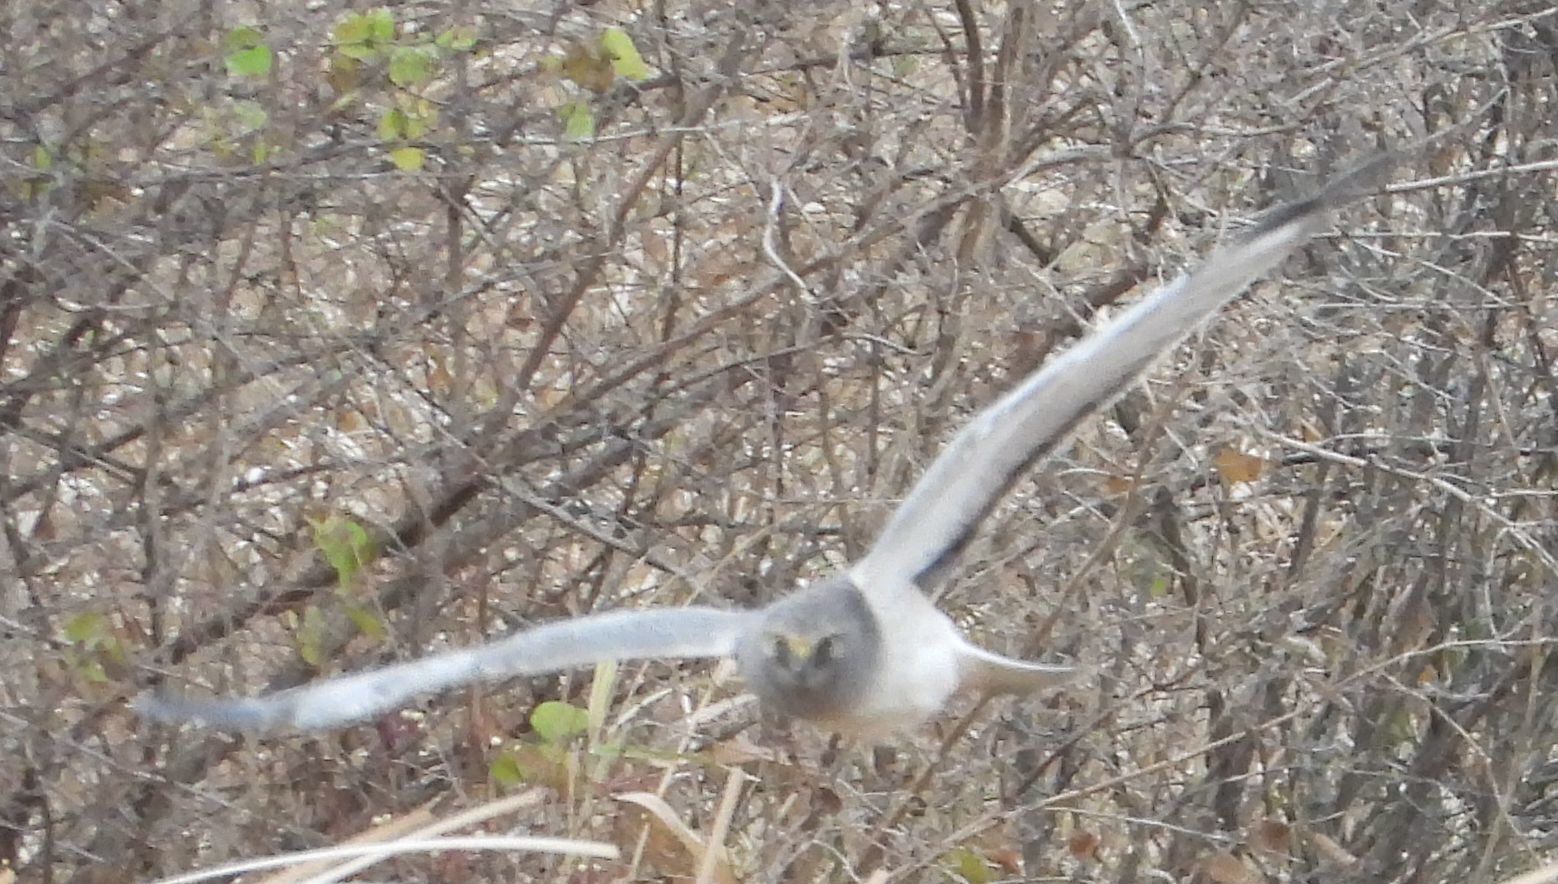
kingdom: Animalia
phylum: Chordata
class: Aves
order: Accipitriformes
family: Accipitridae
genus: Circus
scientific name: Circus cyaneus
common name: Hen harrier
